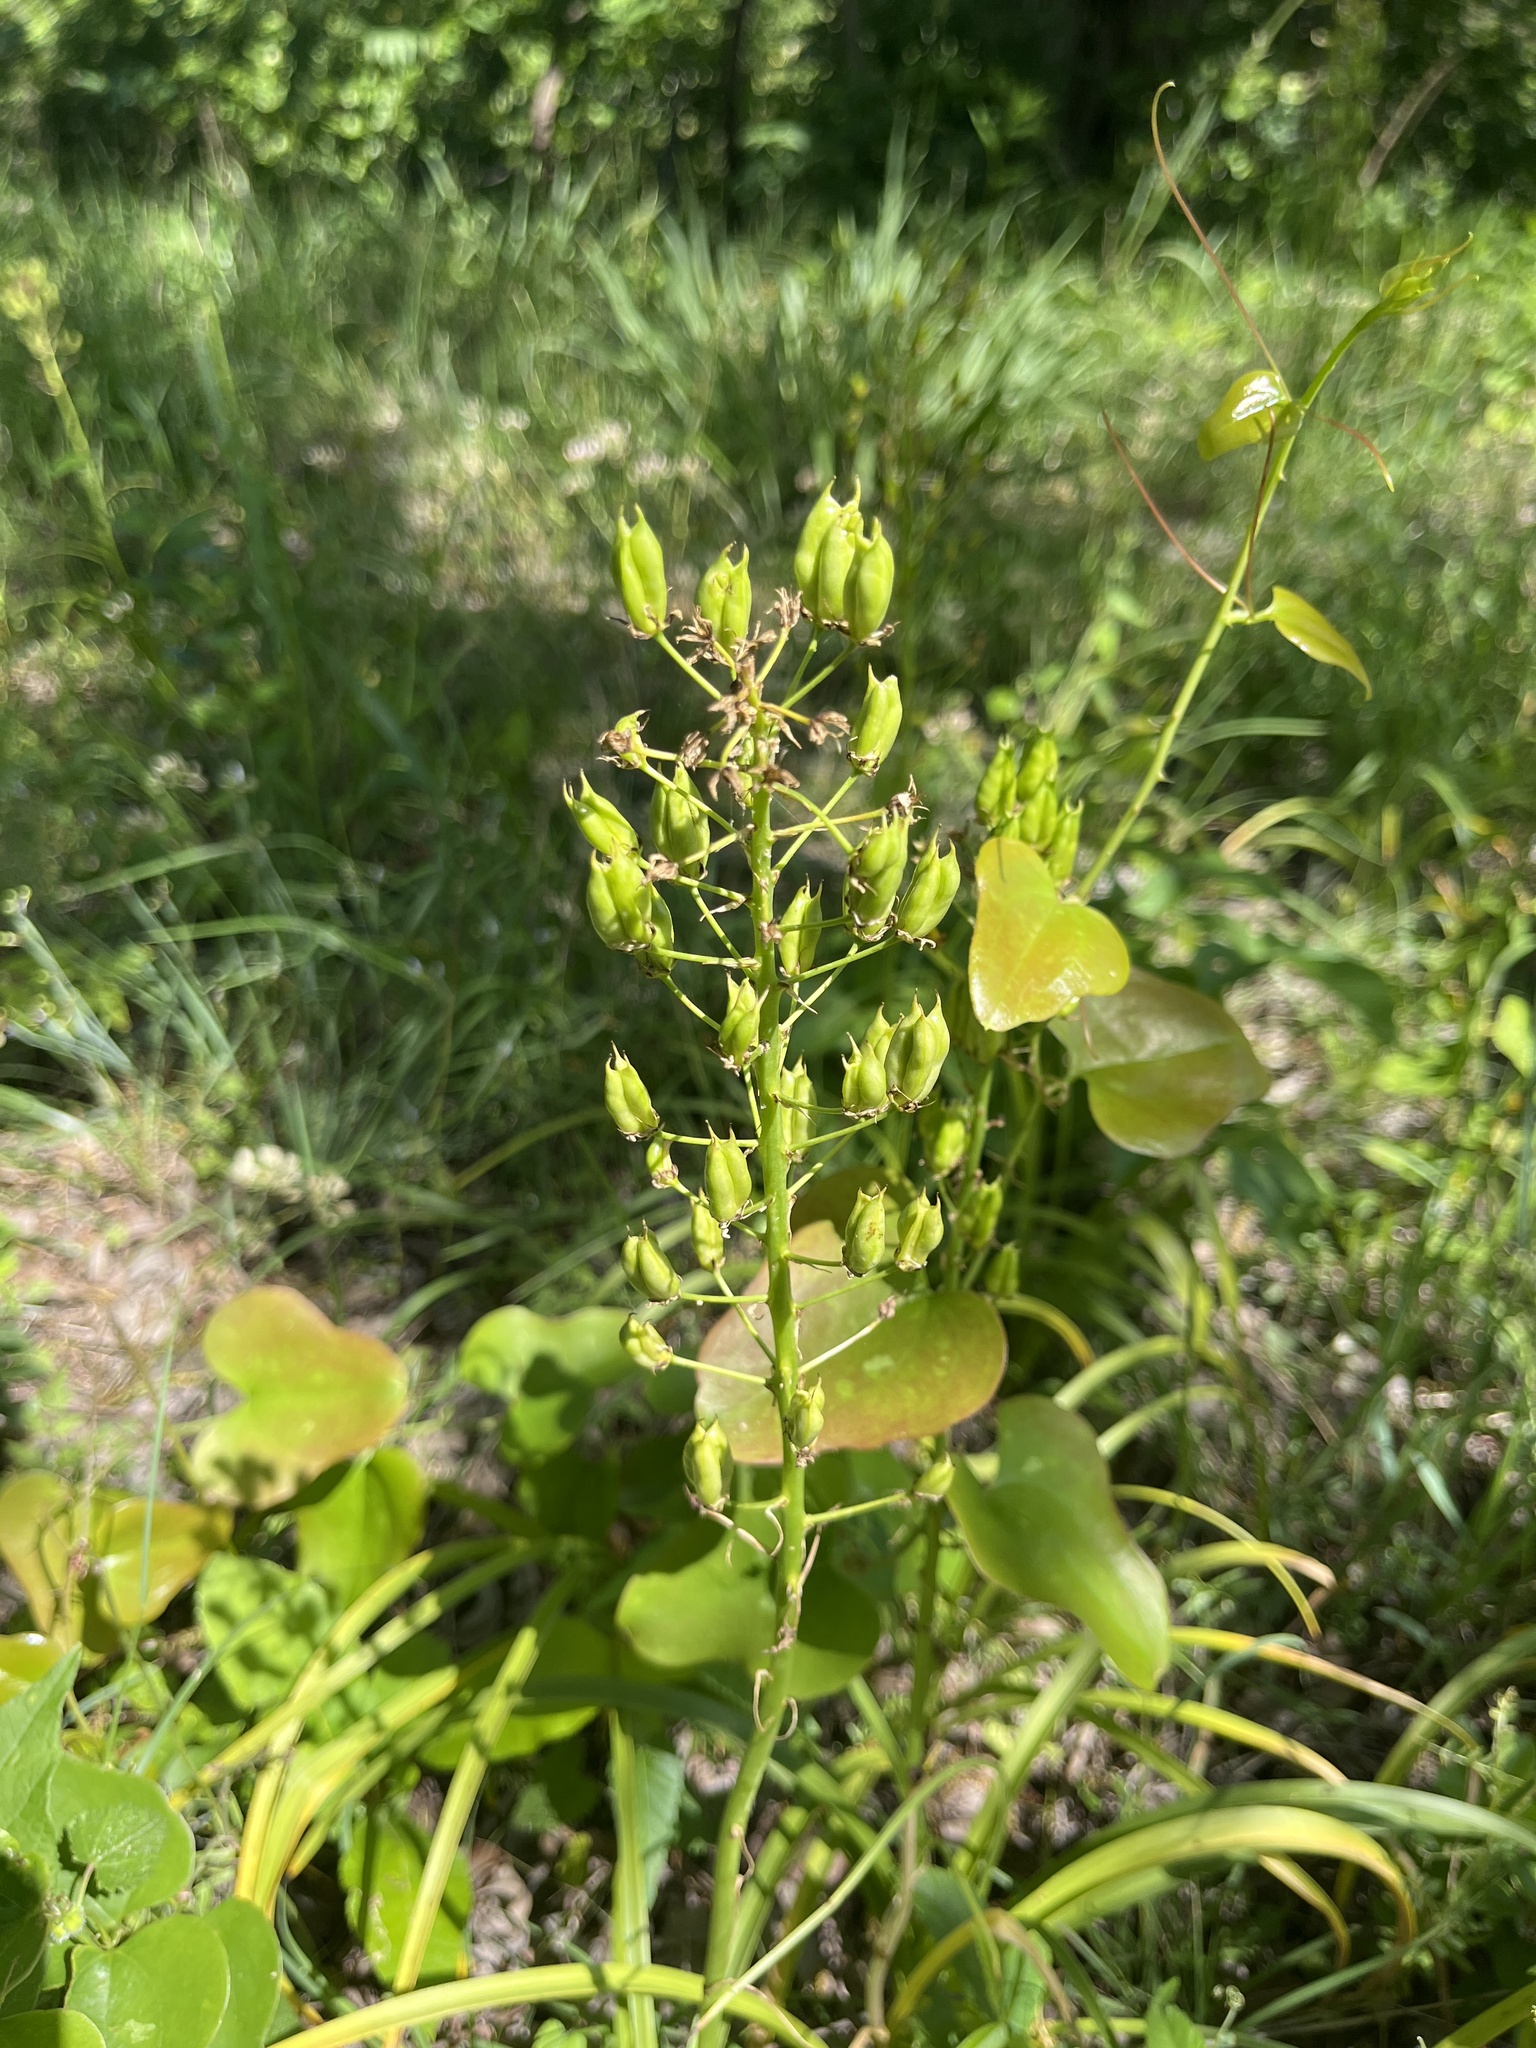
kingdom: Plantae
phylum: Tracheophyta
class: Liliopsida
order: Liliales
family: Melanthiaceae
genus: Toxicoscordion
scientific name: Toxicoscordion nuttallii
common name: Poison sego
